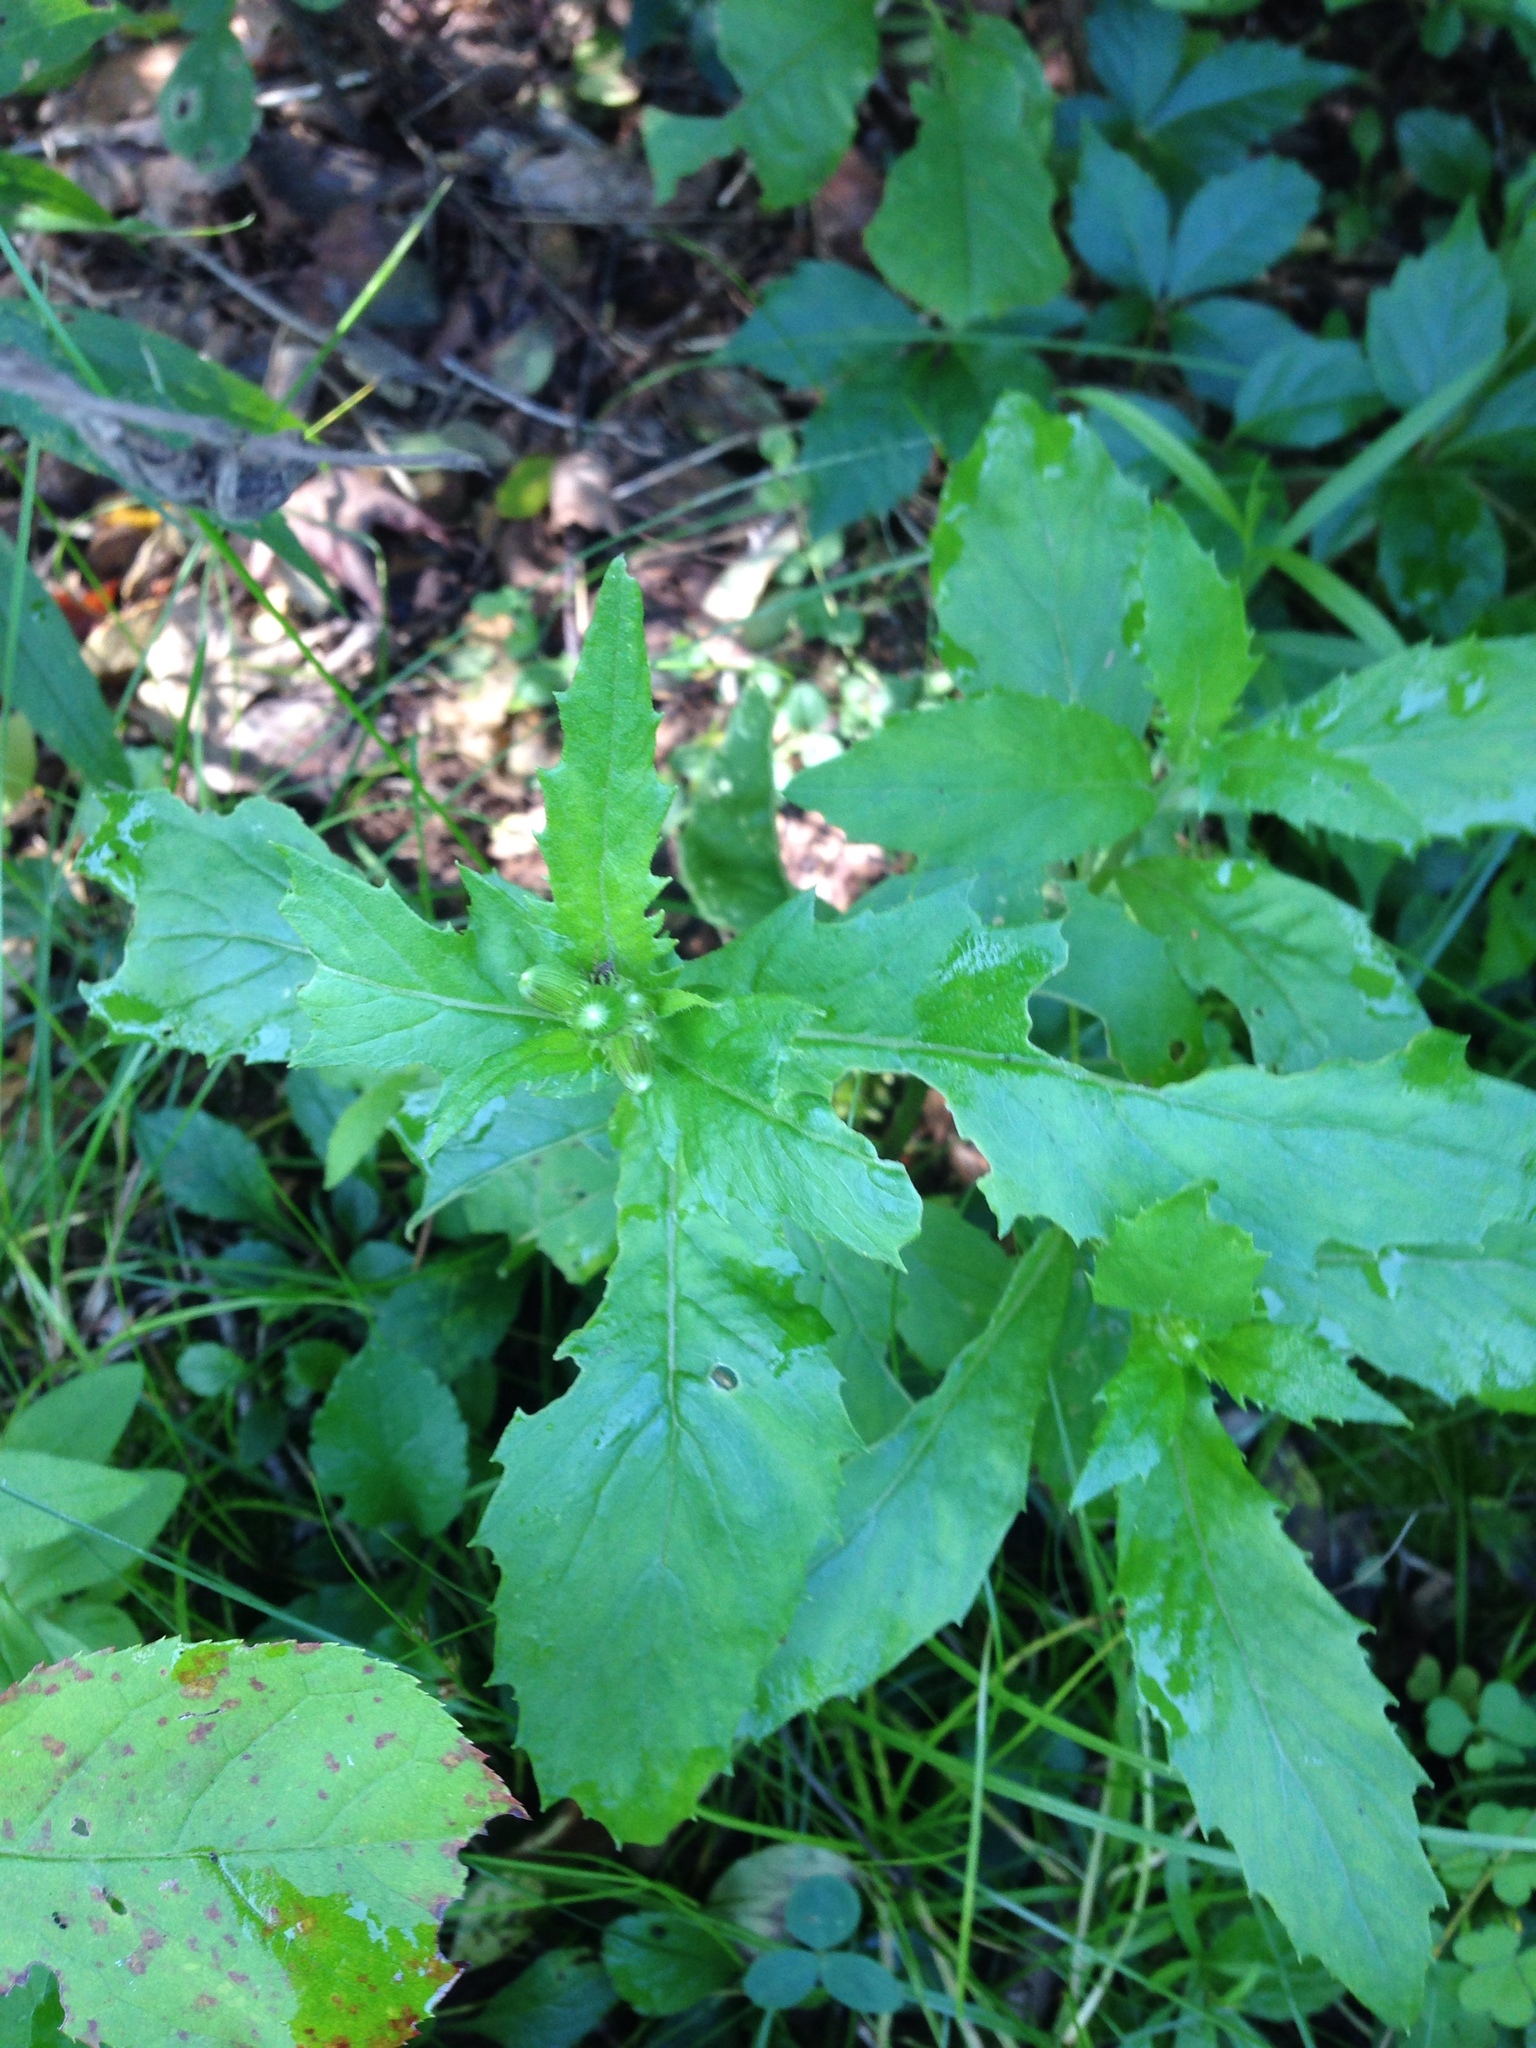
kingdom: Plantae
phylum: Tracheophyta
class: Magnoliopsida
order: Asterales
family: Asteraceae
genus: Erechtites
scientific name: Erechtites hieraciifolius
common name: American burnweed
